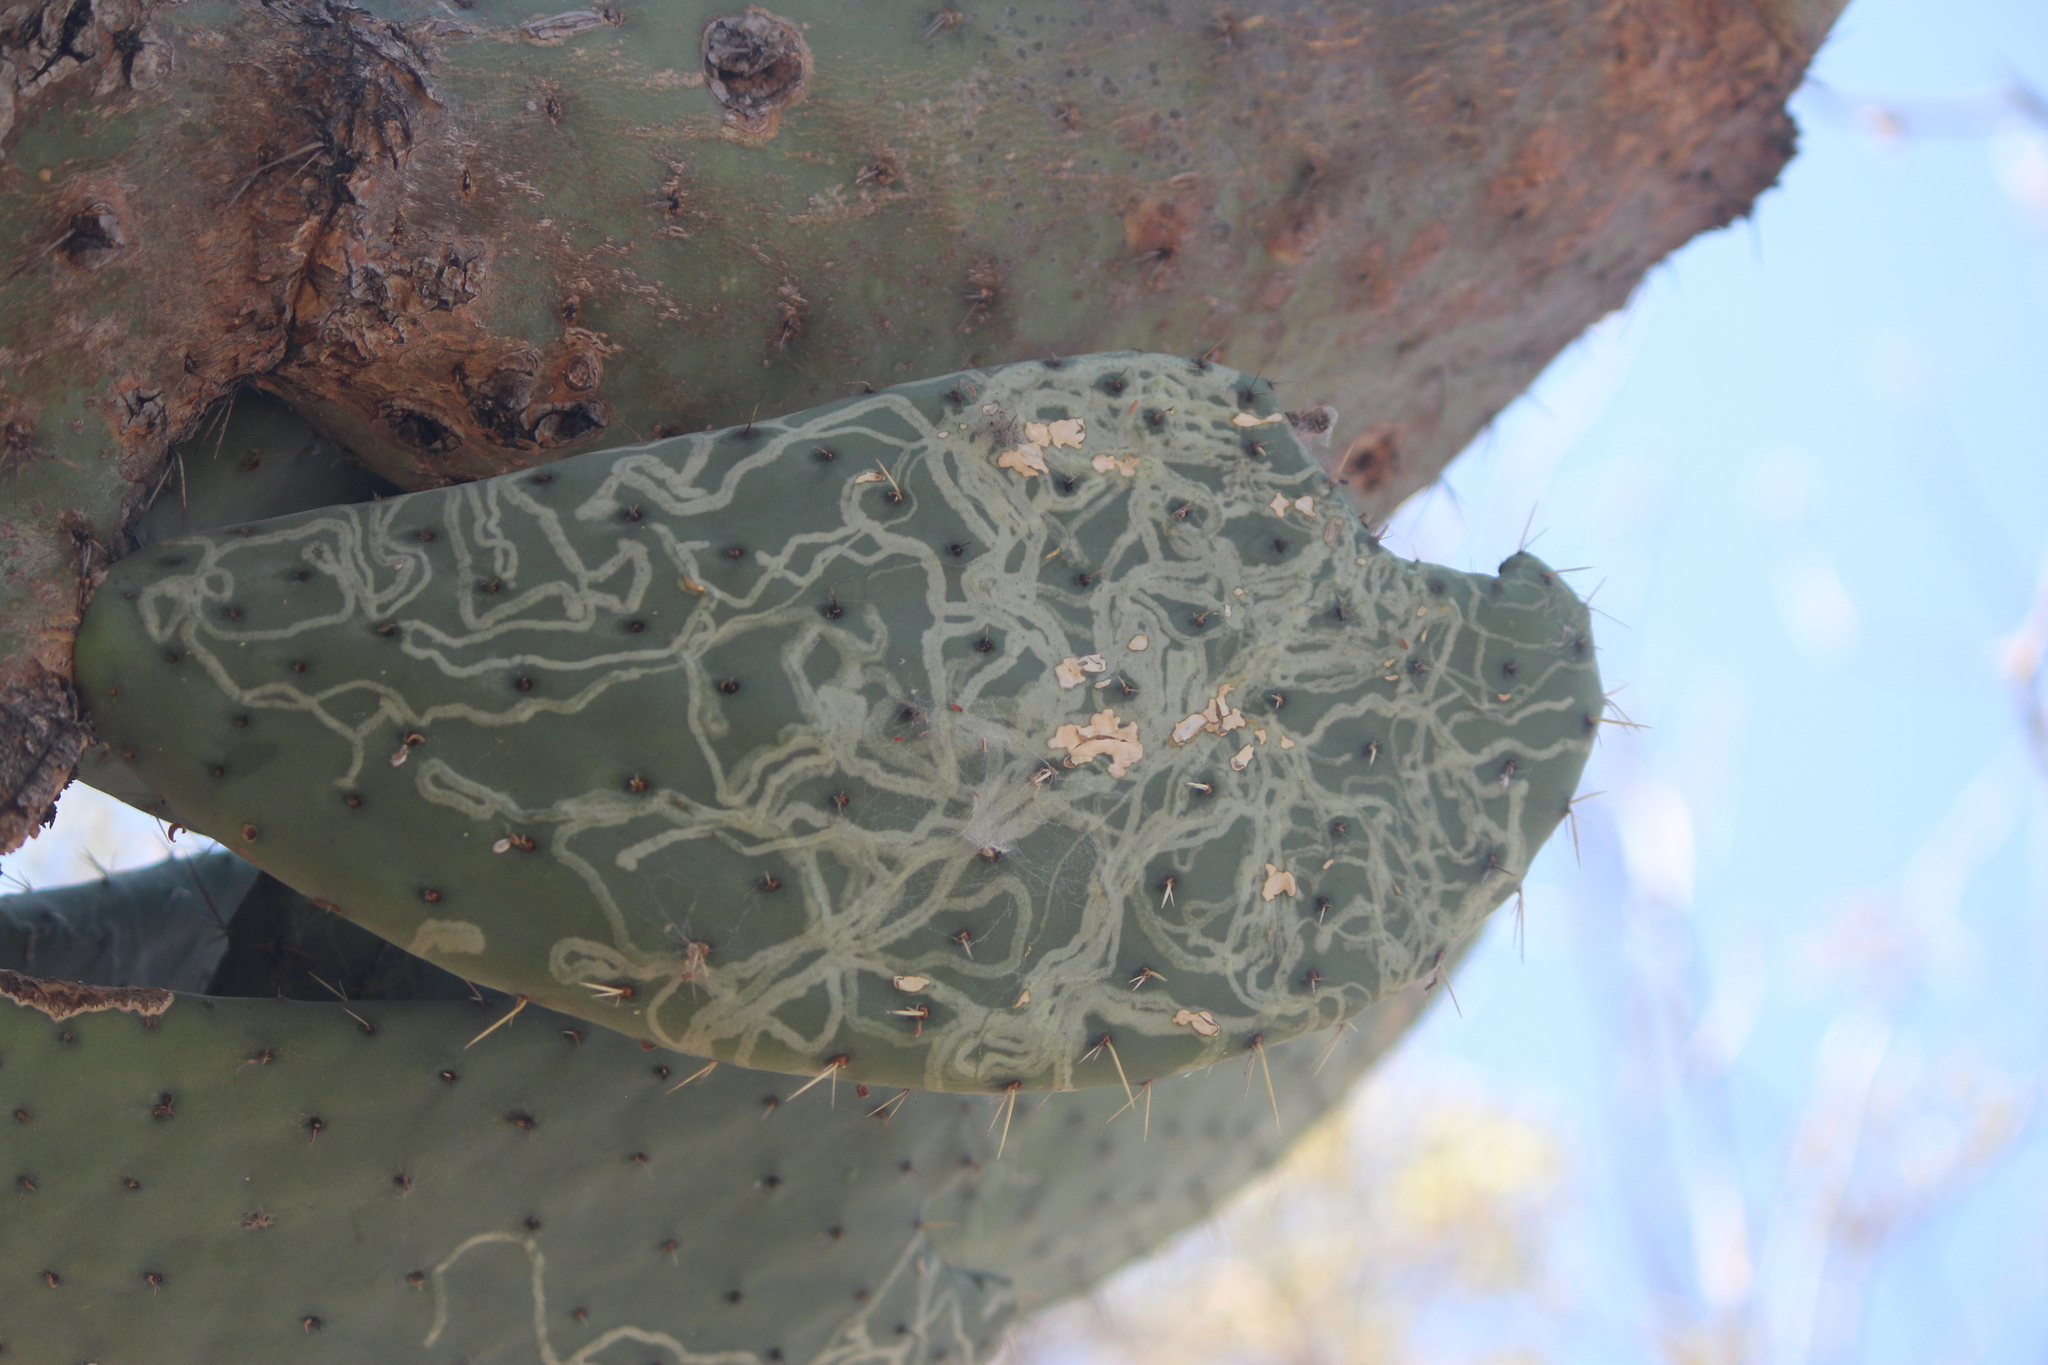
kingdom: Animalia
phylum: Arthropoda
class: Insecta
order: Lepidoptera
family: Gracillariidae
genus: Marmara
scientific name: Marmara opuntiella
